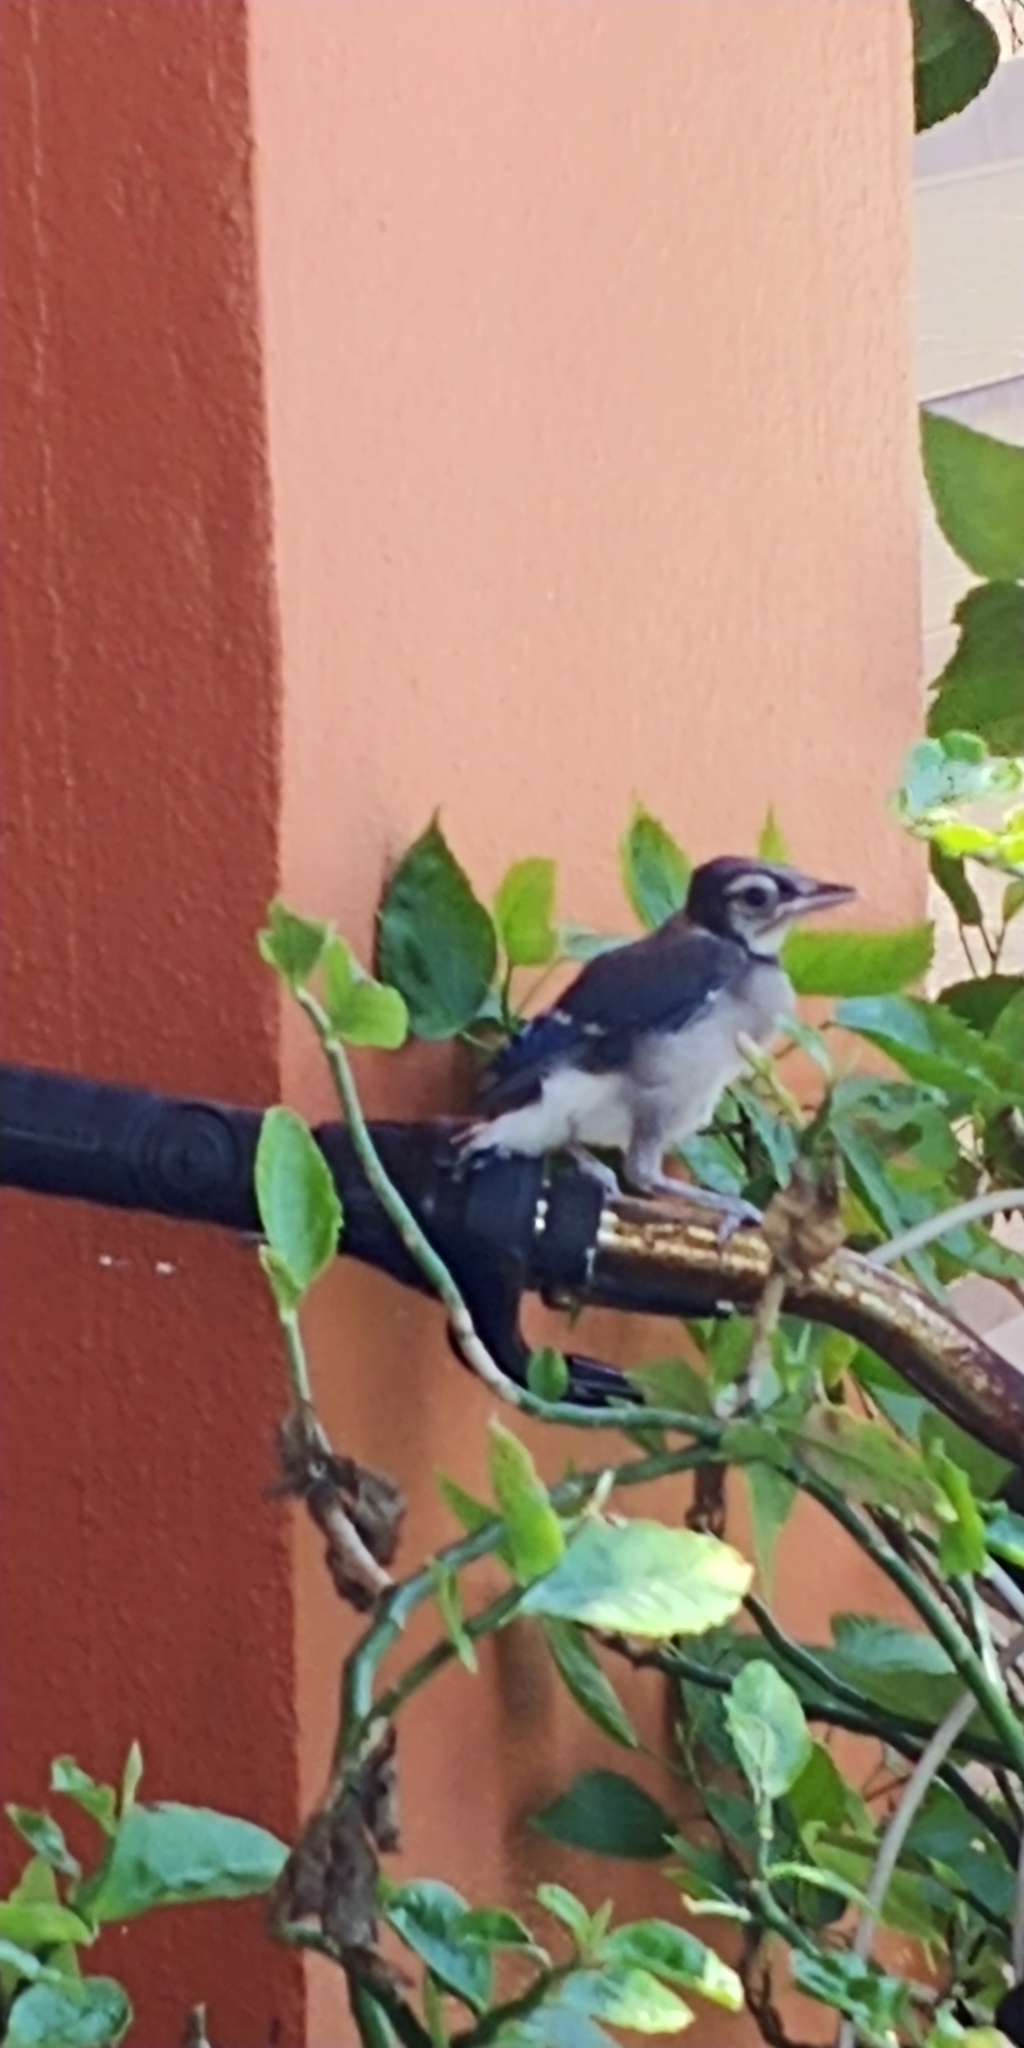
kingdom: Animalia
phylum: Chordata
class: Aves
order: Passeriformes
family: Corvidae
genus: Cyanocitta
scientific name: Cyanocitta cristata
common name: Blue jay
